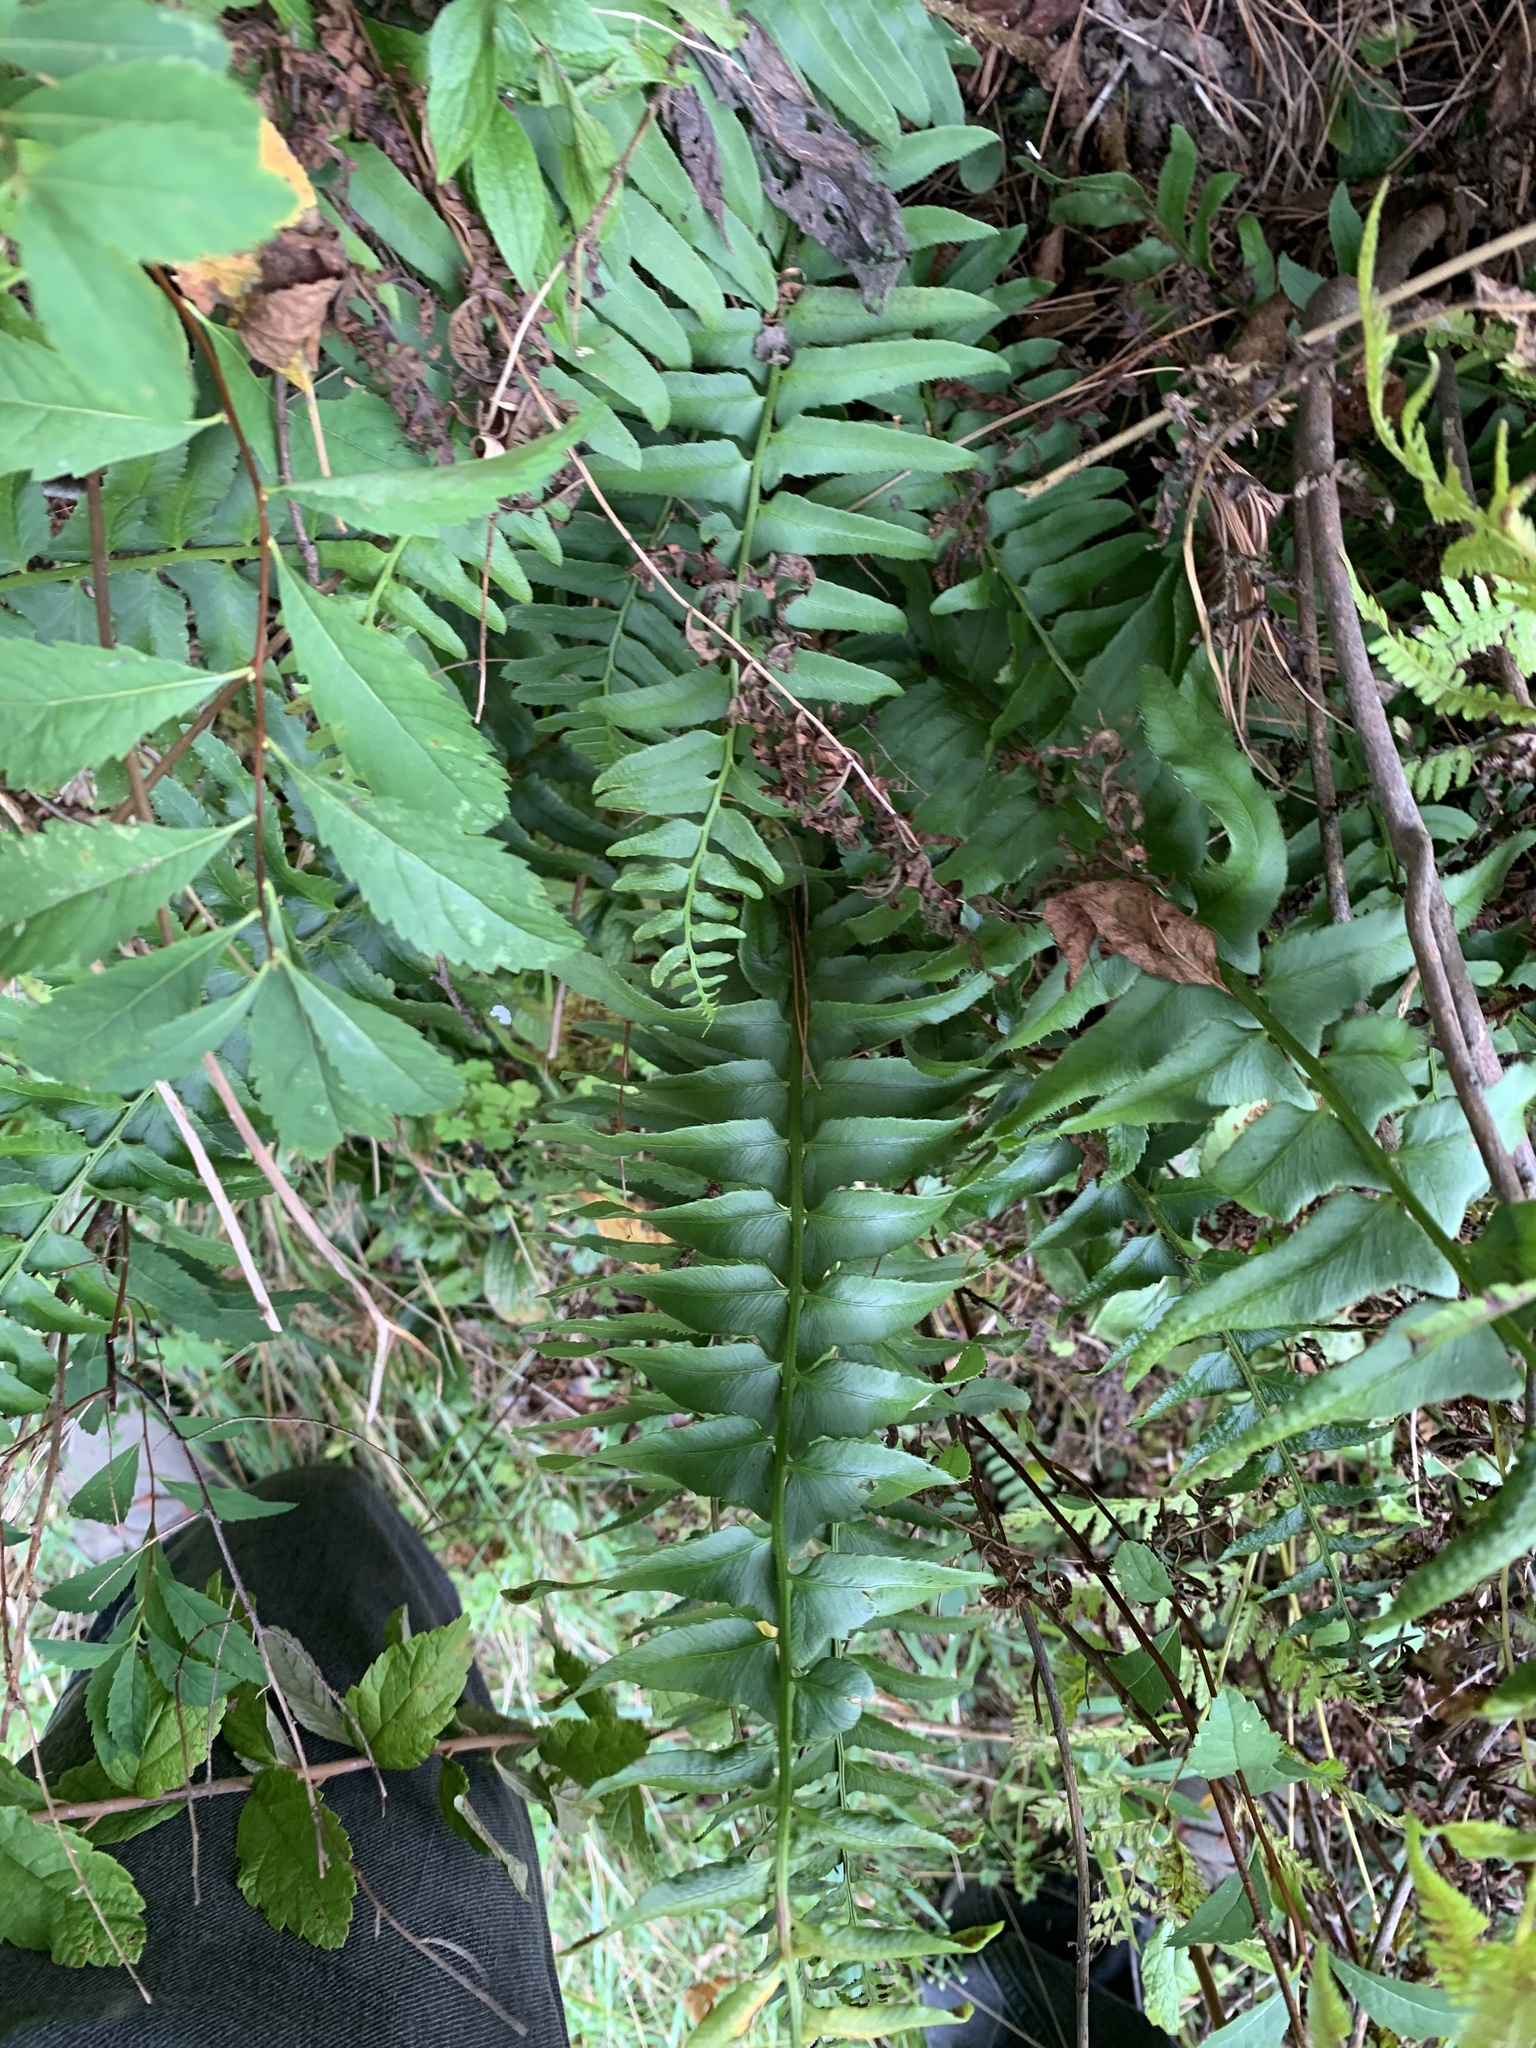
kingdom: Plantae
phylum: Tracheophyta
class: Polypodiopsida
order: Polypodiales
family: Dryopteridaceae
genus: Polystichum
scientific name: Polystichum acrostichoides
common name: Christmas fern
